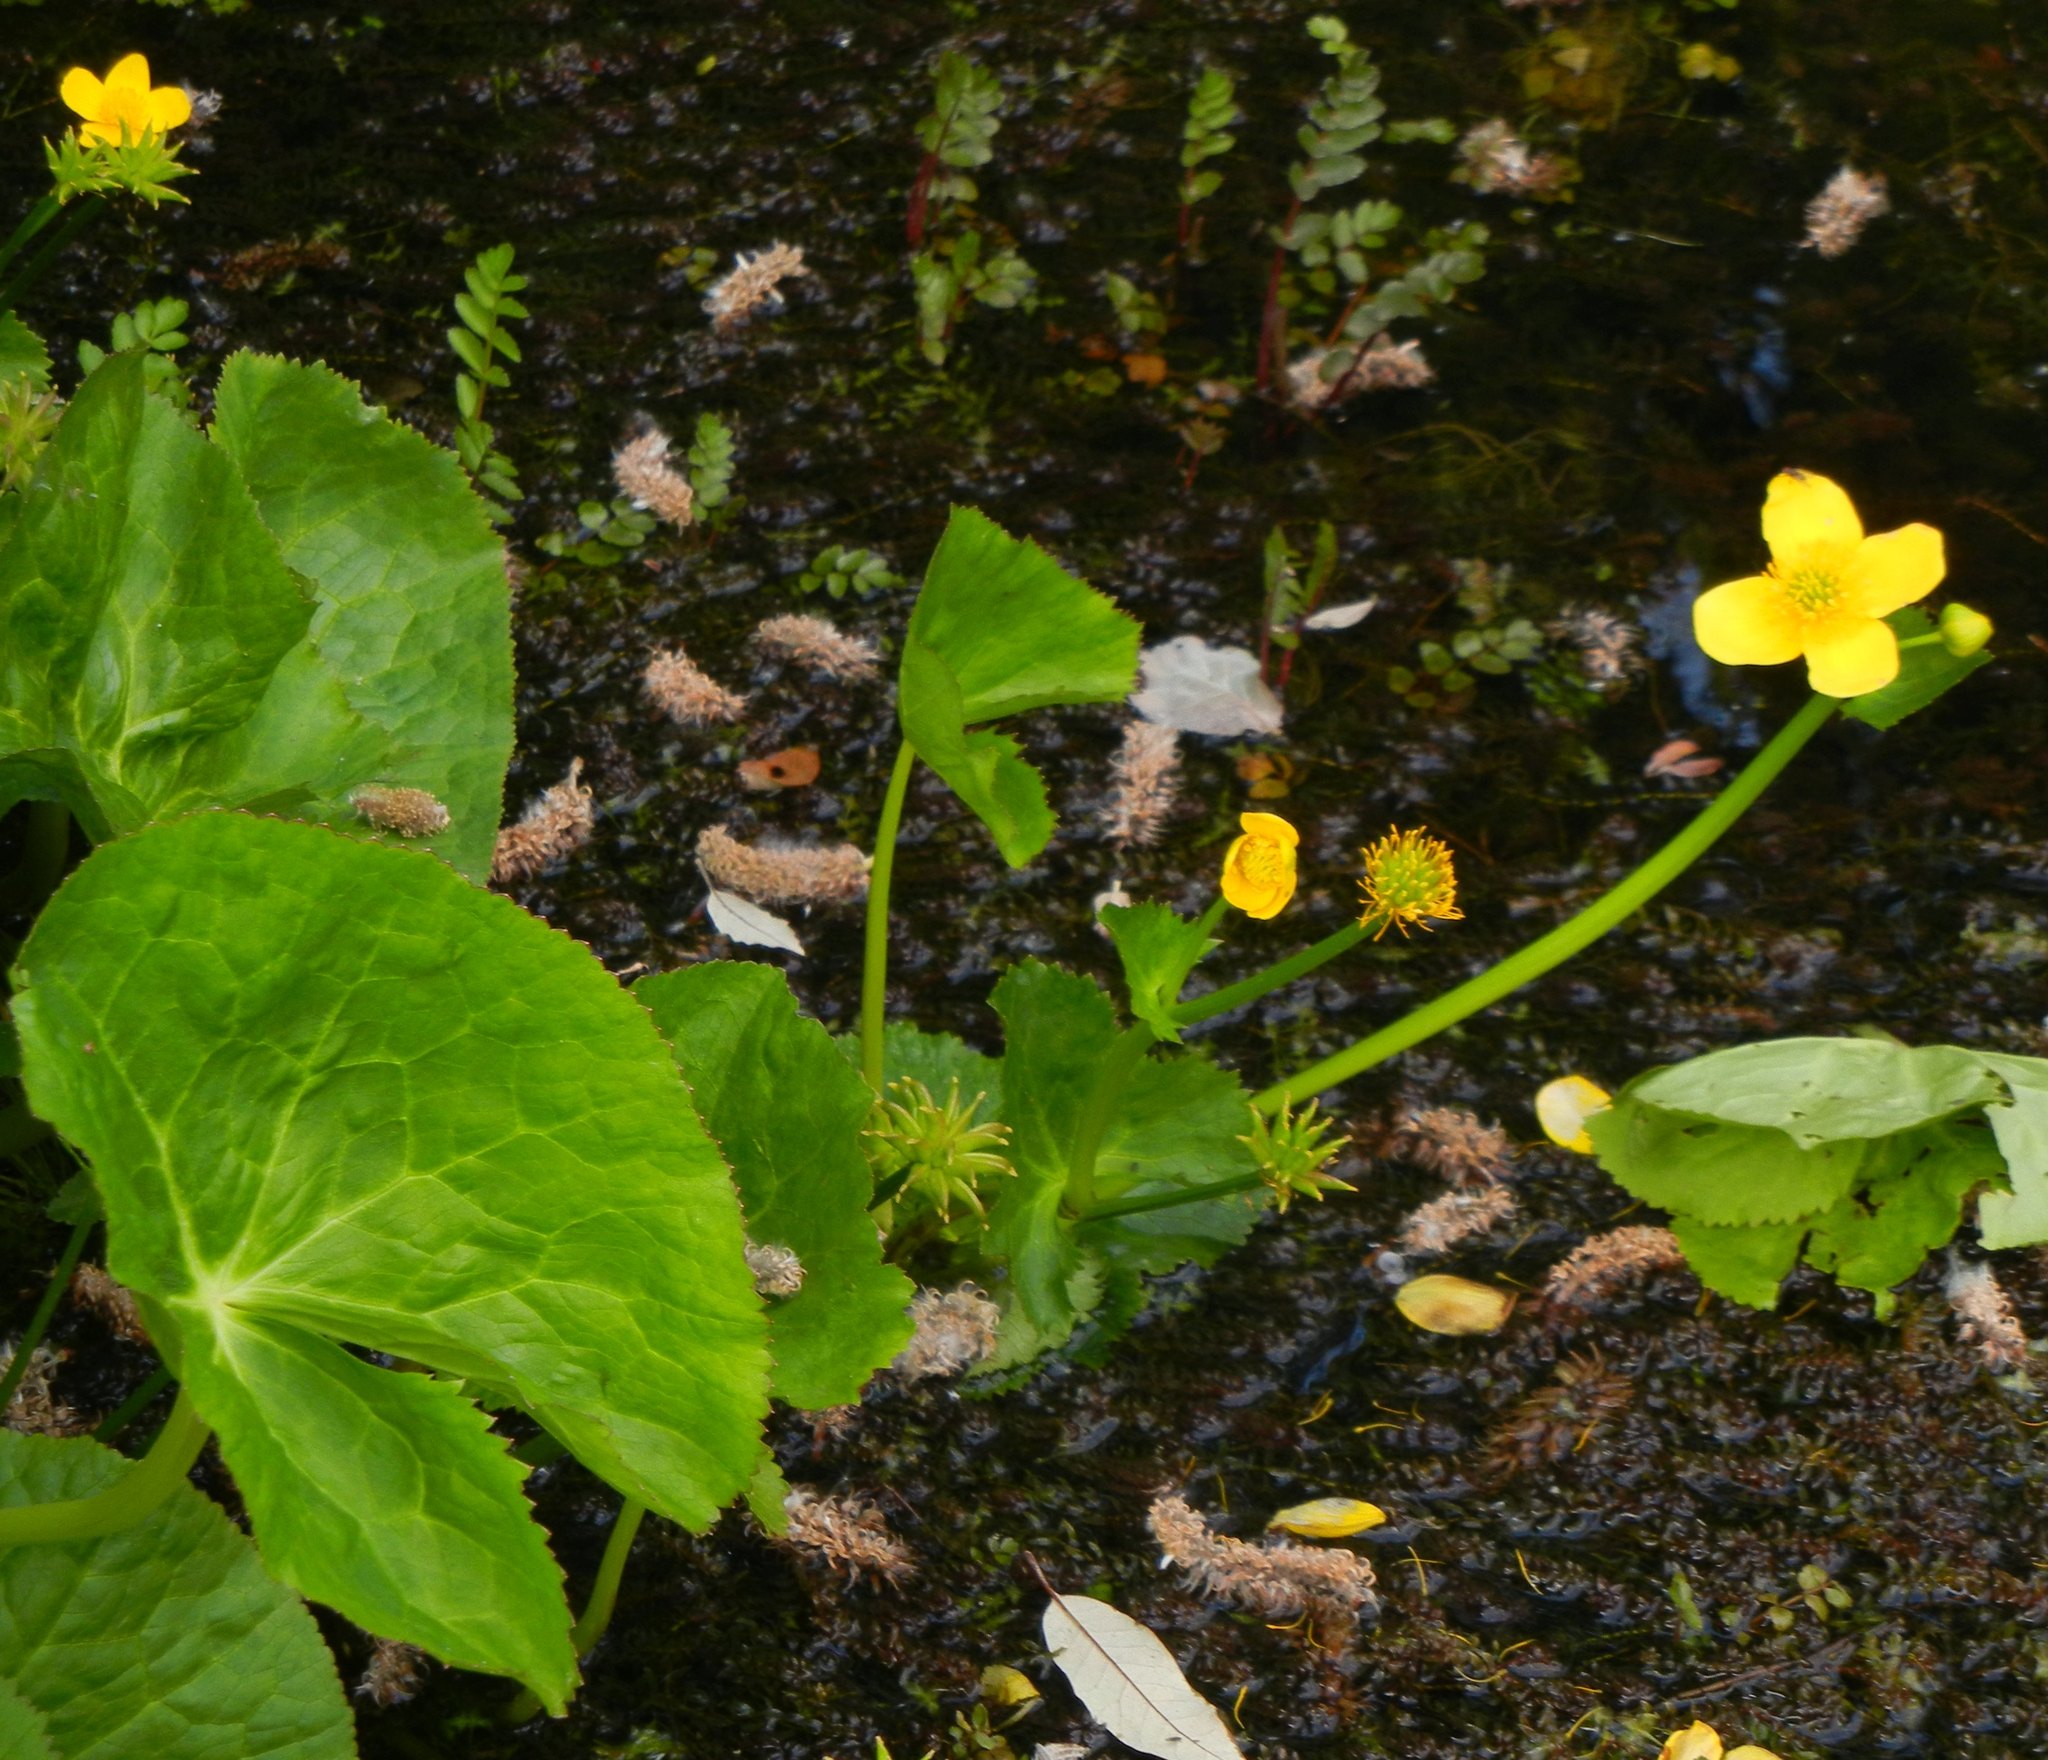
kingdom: Plantae
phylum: Tracheophyta
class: Magnoliopsida
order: Ranunculales
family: Ranunculaceae
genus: Caltha
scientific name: Caltha palustris
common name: Marsh marigold
